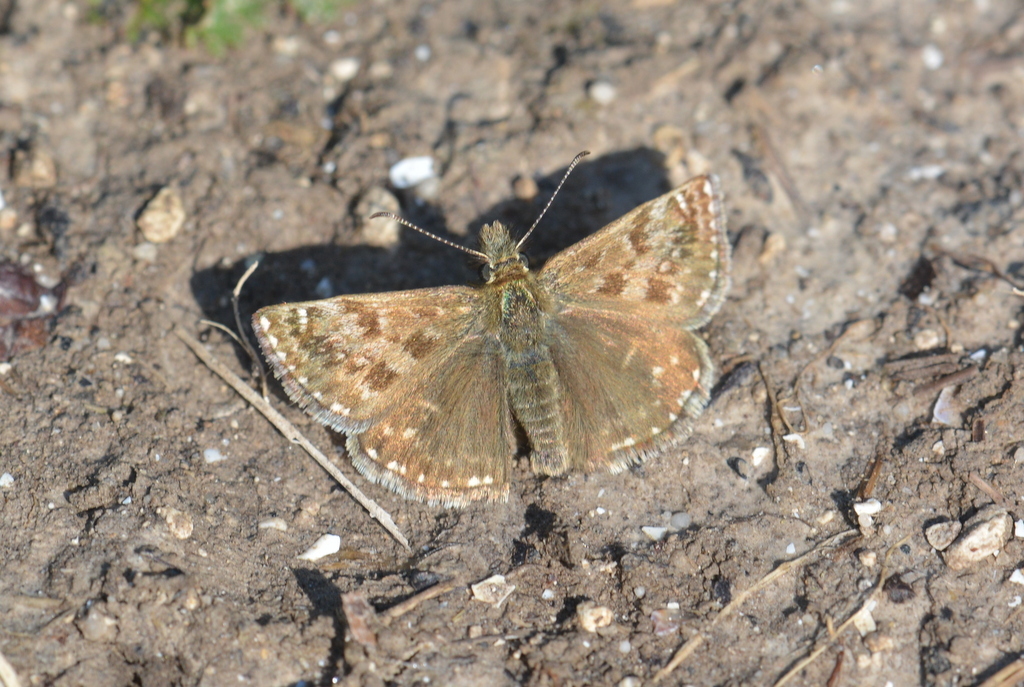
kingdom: Animalia
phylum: Arthropoda
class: Insecta
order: Lepidoptera
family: Hesperiidae
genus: Erynnis
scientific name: Erynnis tages
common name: Dingy skipper
